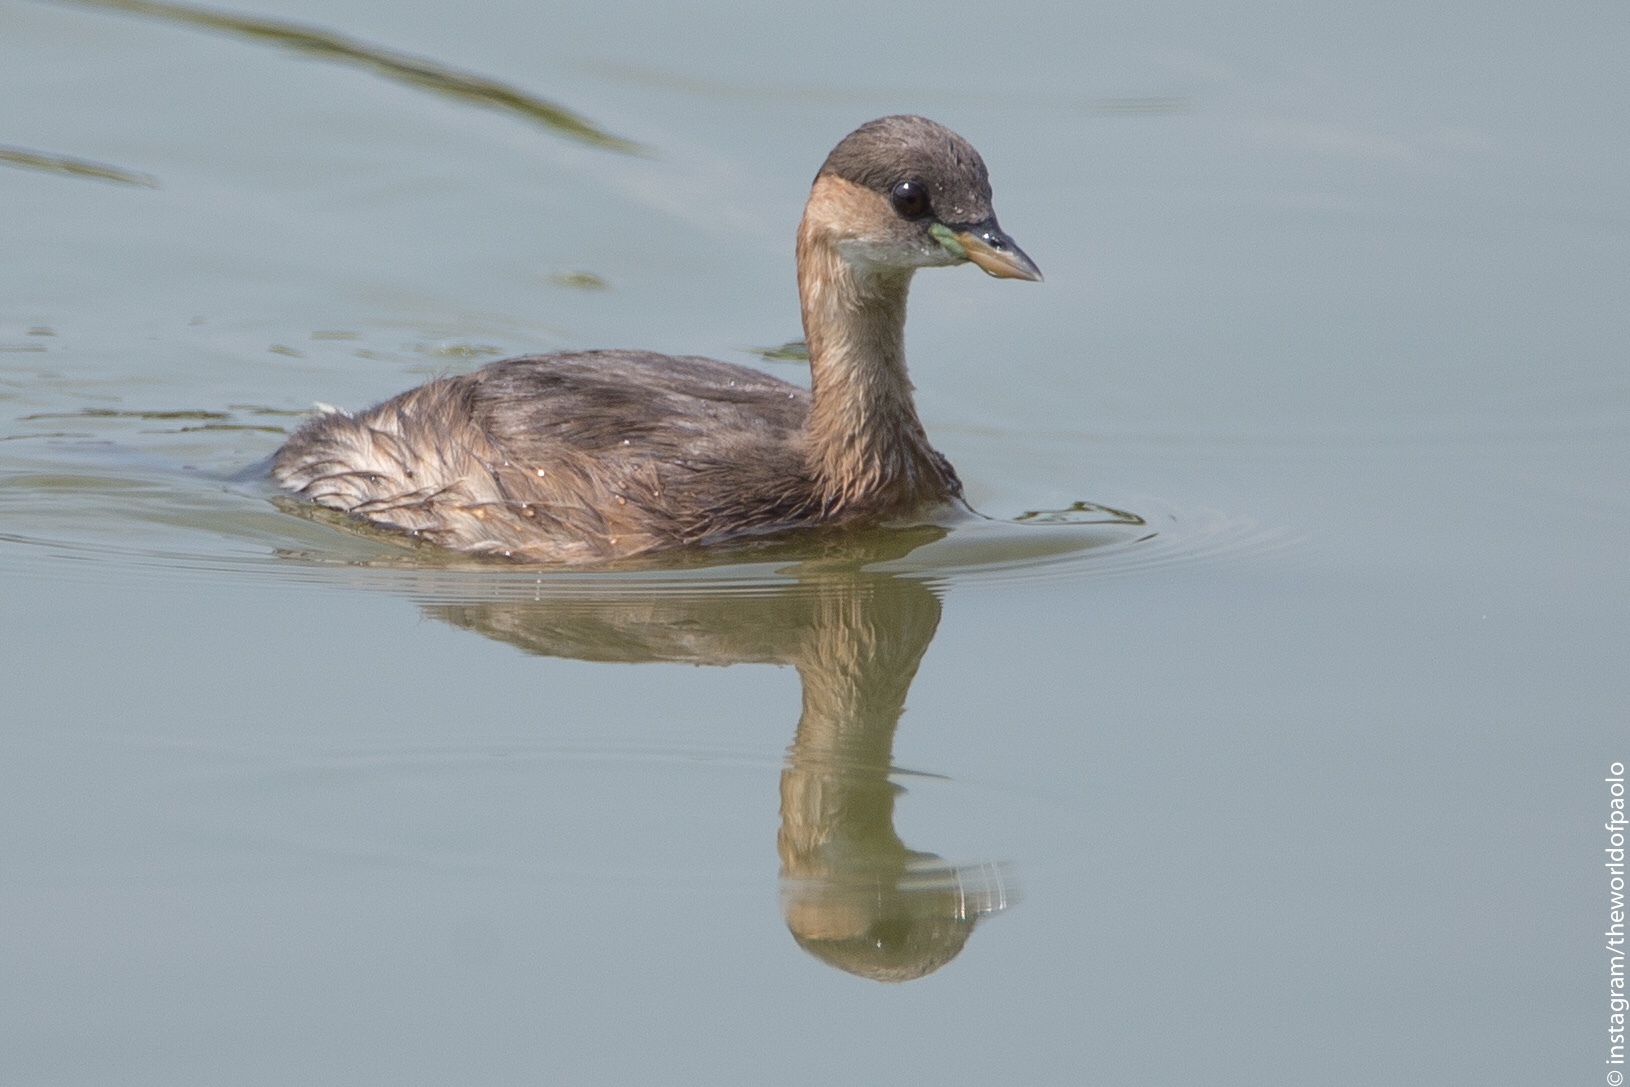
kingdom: Animalia
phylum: Chordata
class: Aves
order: Podicipediformes
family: Podicipedidae
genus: Tachybaptus
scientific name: Tachybaptus ruficollis
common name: Little grebe
